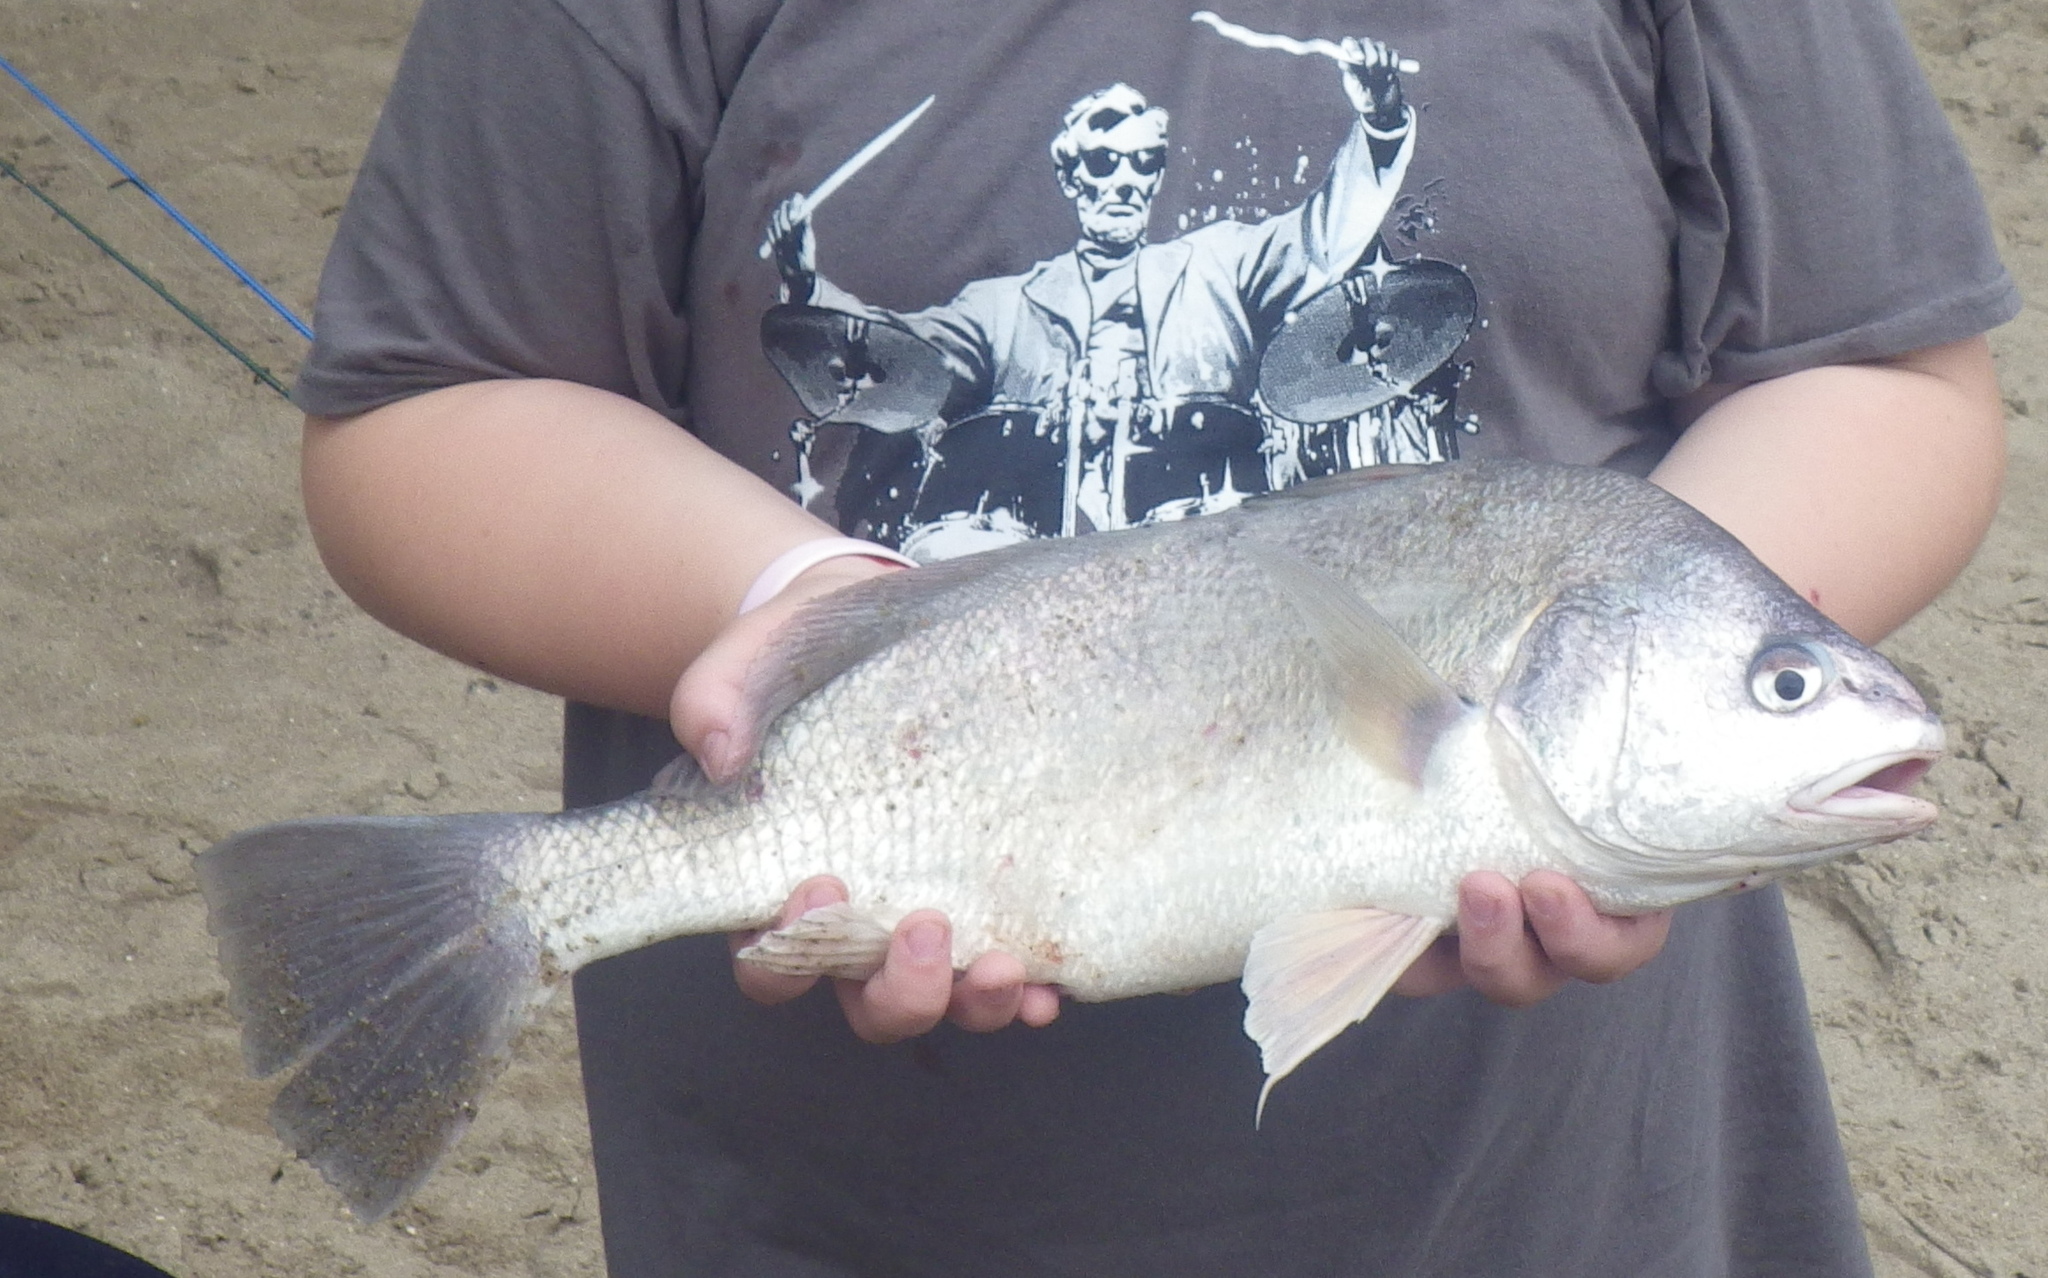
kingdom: Animalia
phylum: Chordata
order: Perciformes
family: Sciaenidae
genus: Aplodinotus
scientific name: Aplodinotus grunniens
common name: Freshwater drum
